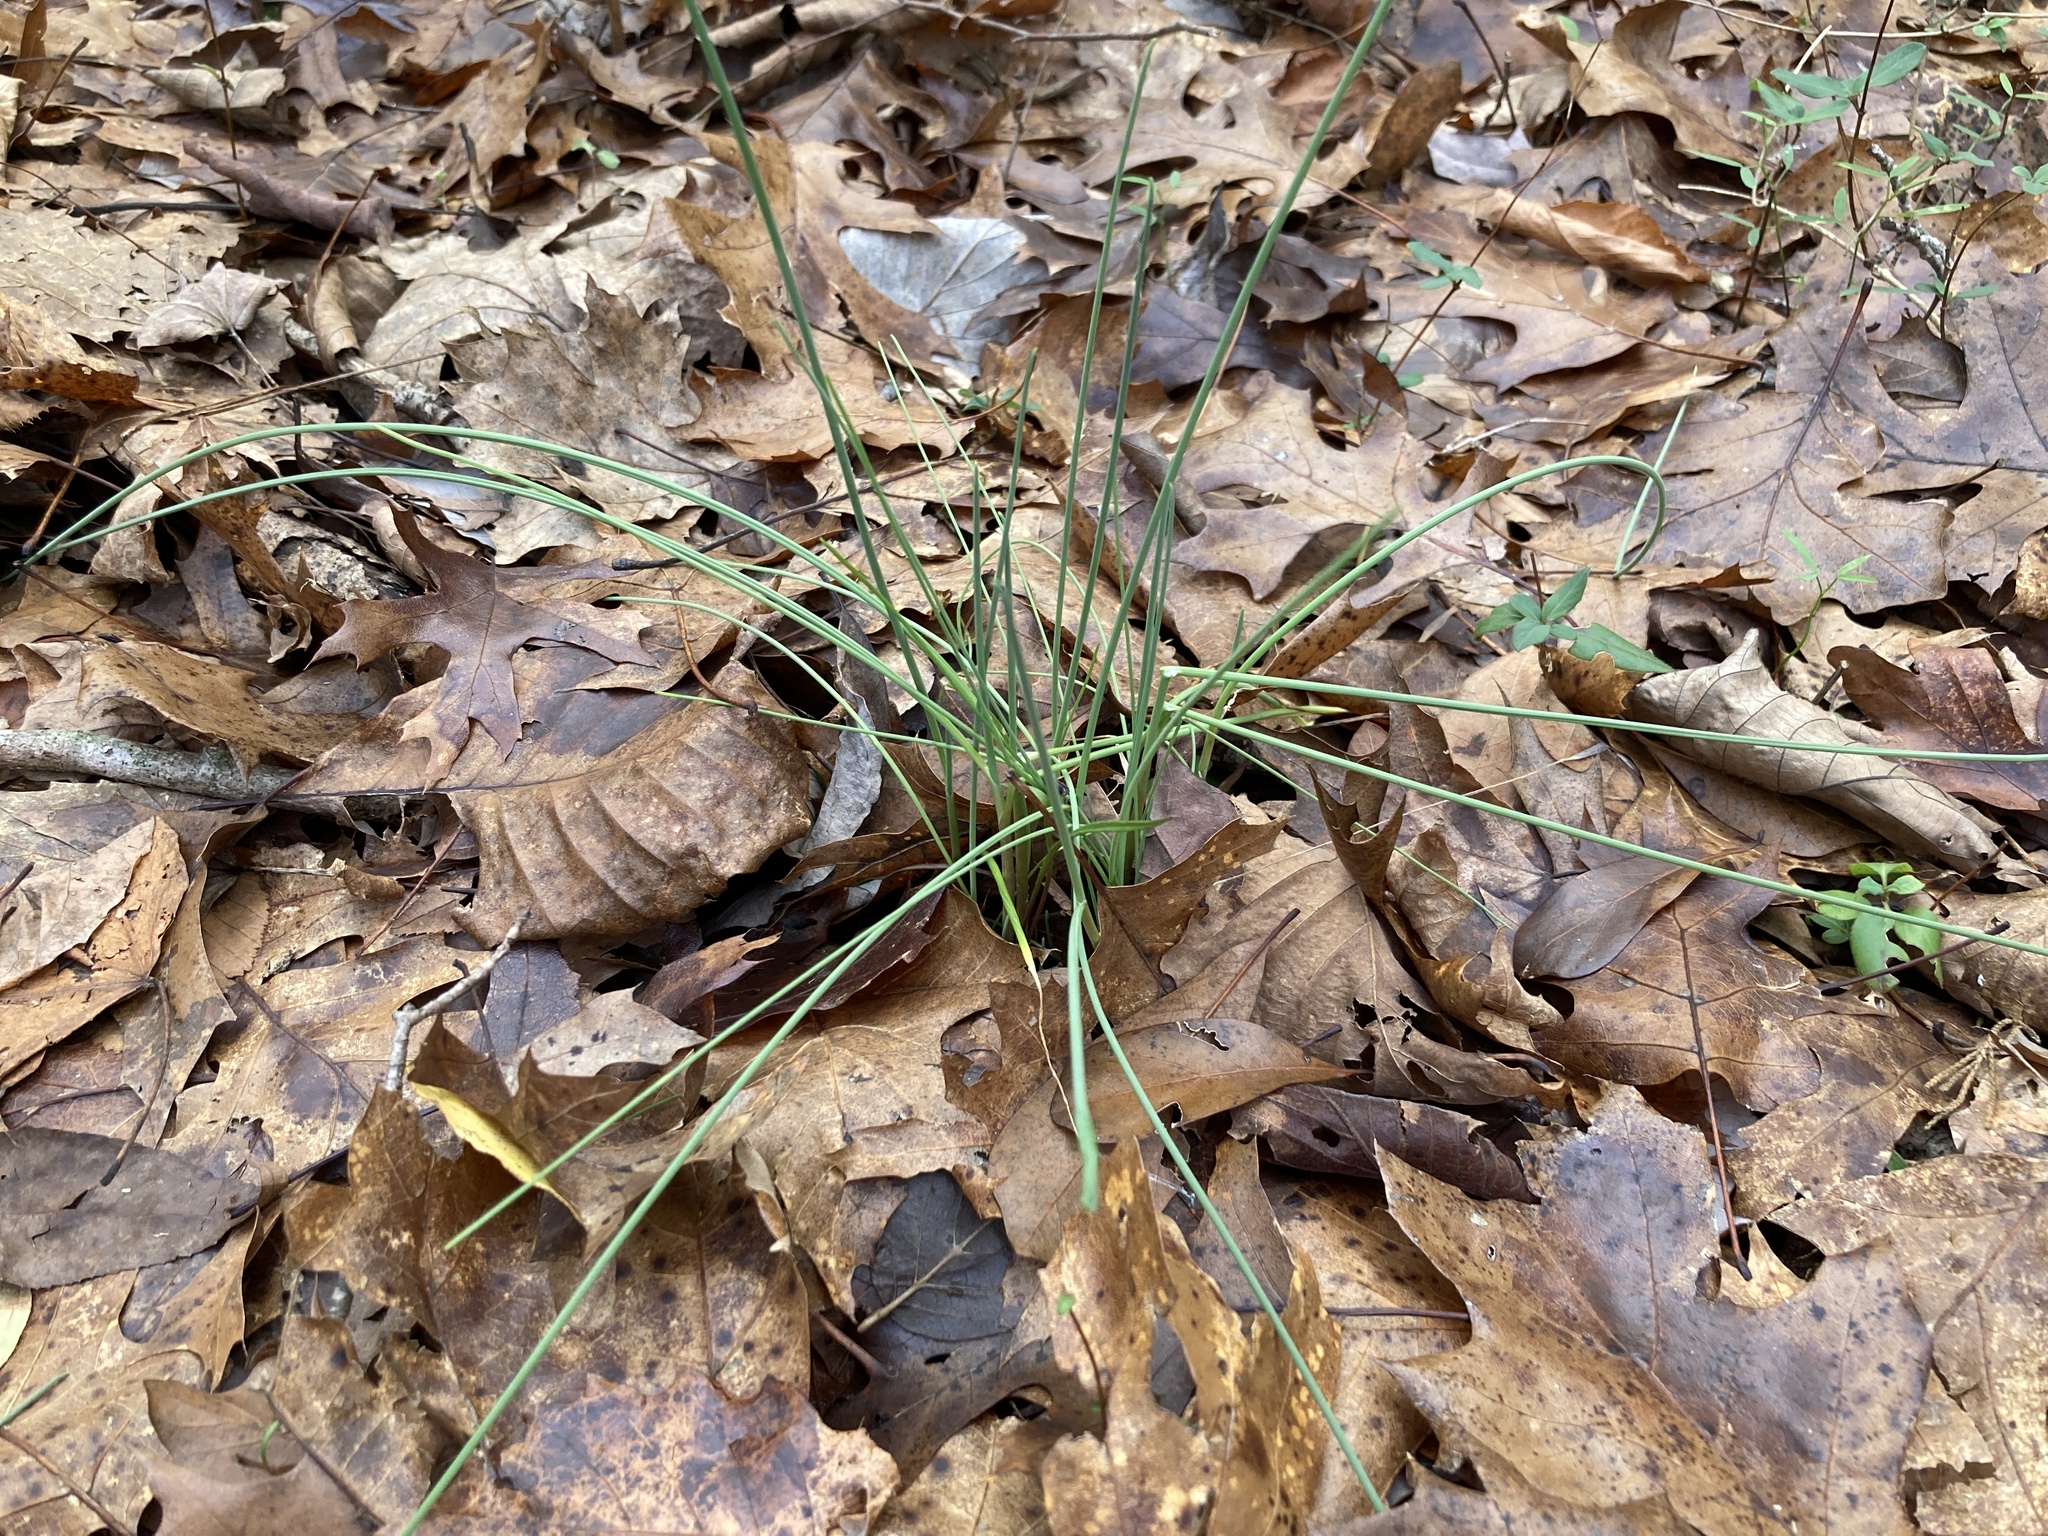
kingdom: Plantae
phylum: Tracheophyta
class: Liliopsida
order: Asparagales
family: Amaryllidaceae
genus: Allium
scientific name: Allium vineale
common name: Crow garlic
